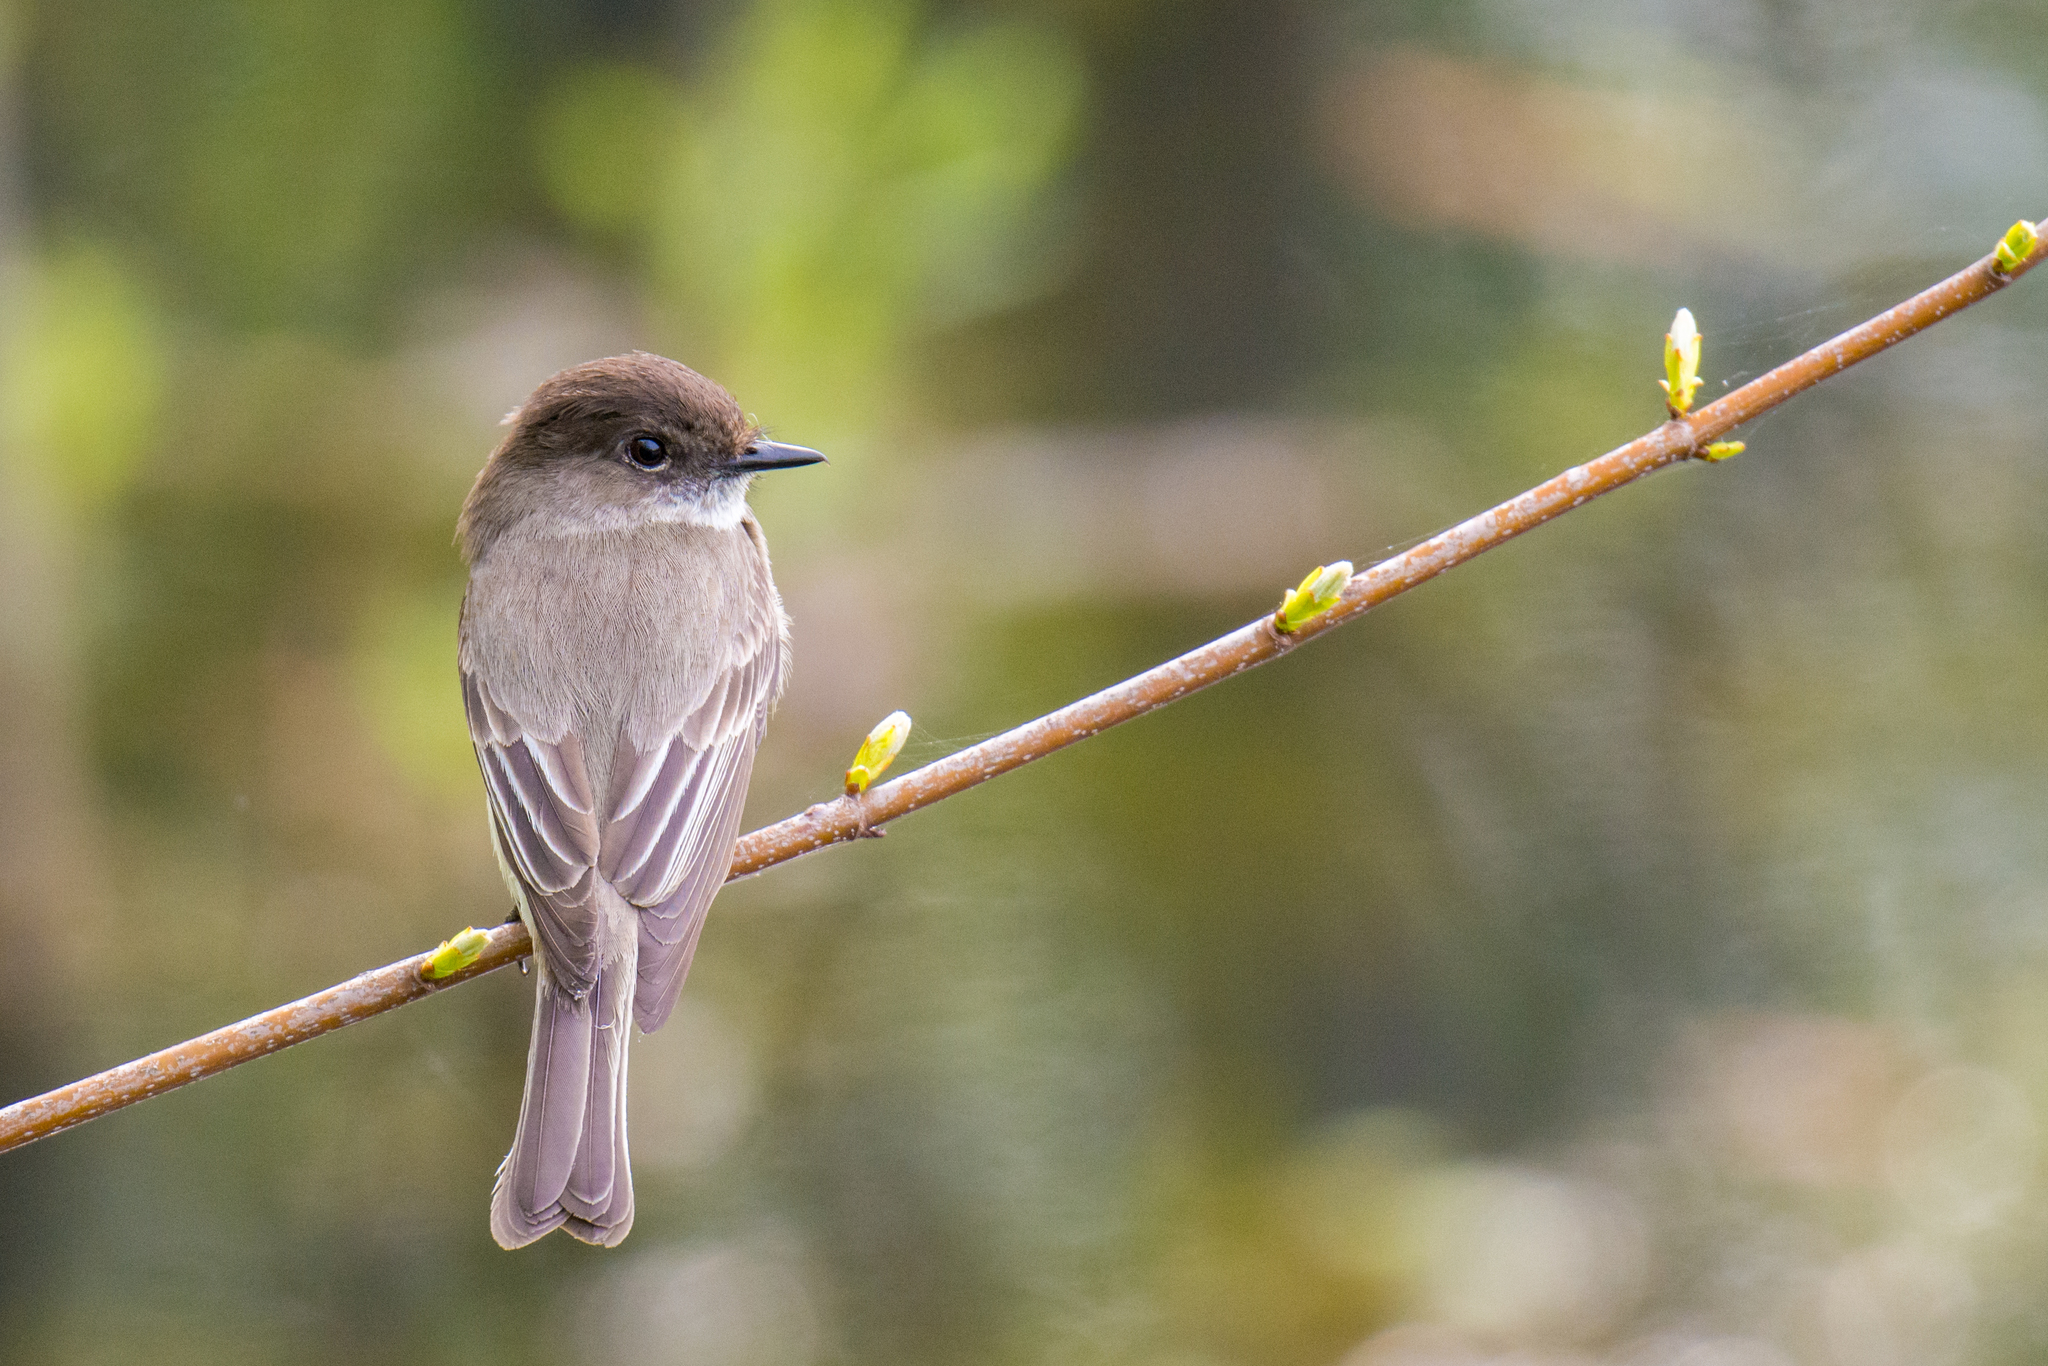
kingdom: Animalia
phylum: Chordata
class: Aves
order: Passeriformes
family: Tyrannidae
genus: Sayornis
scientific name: Sayornis phoebe
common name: Eastern phoebe
